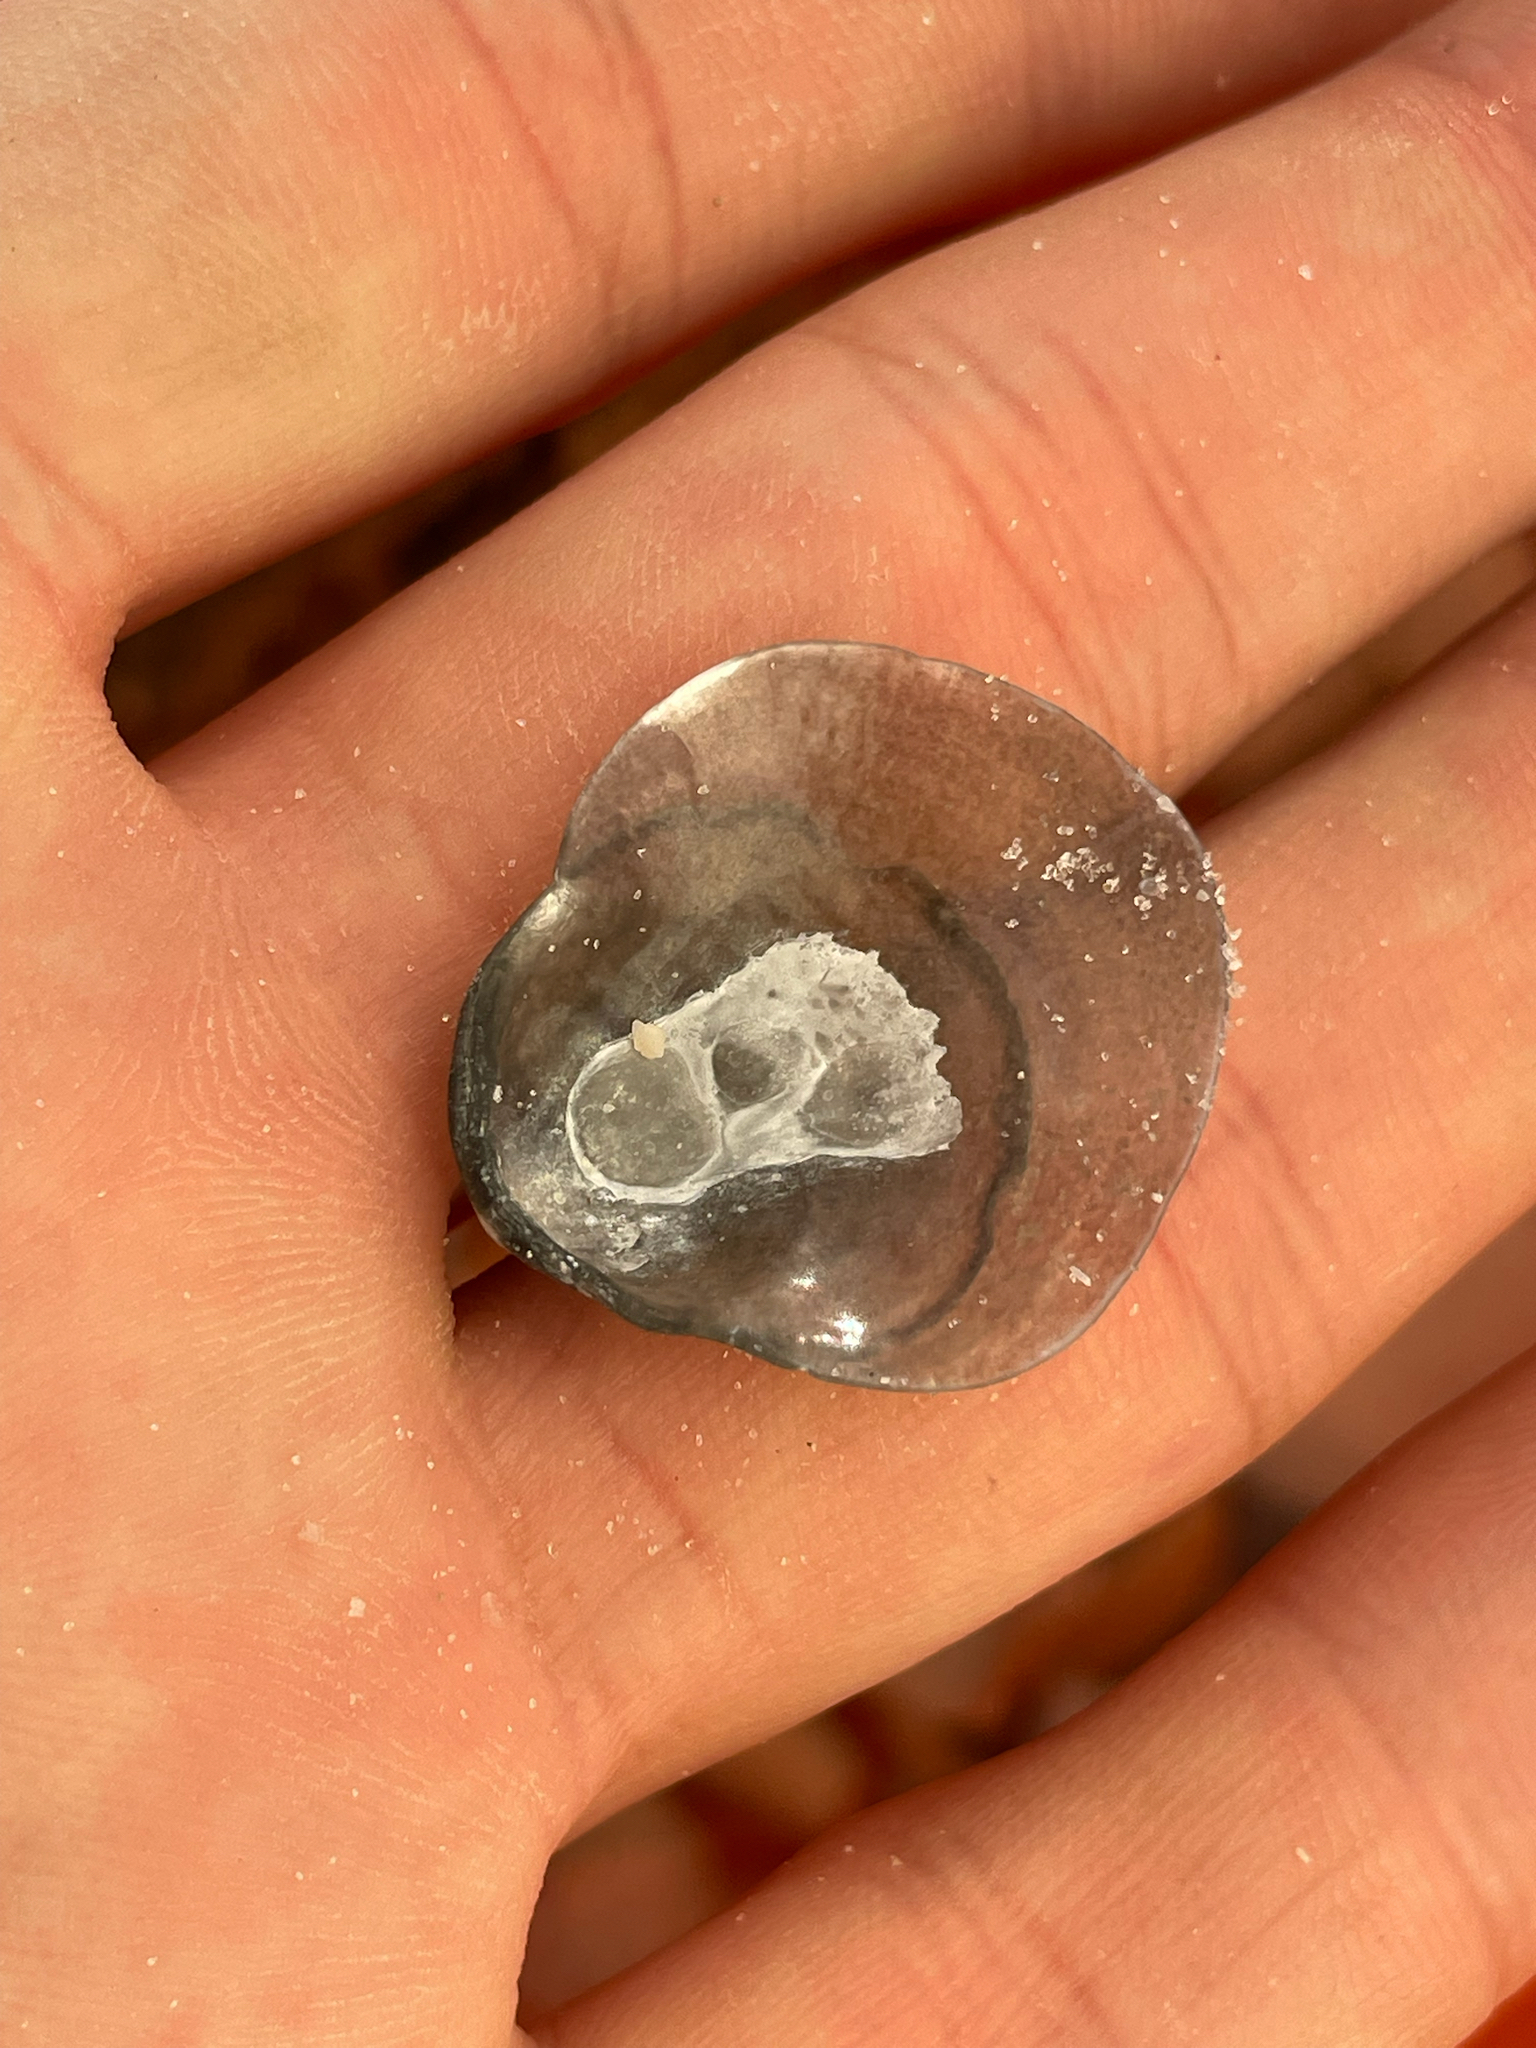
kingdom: Animalia
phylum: Mollusca
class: Bivalvia
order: Pectinida
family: Anomiidae
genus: Anomia
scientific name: Anomia simplex
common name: Common jingle shell
